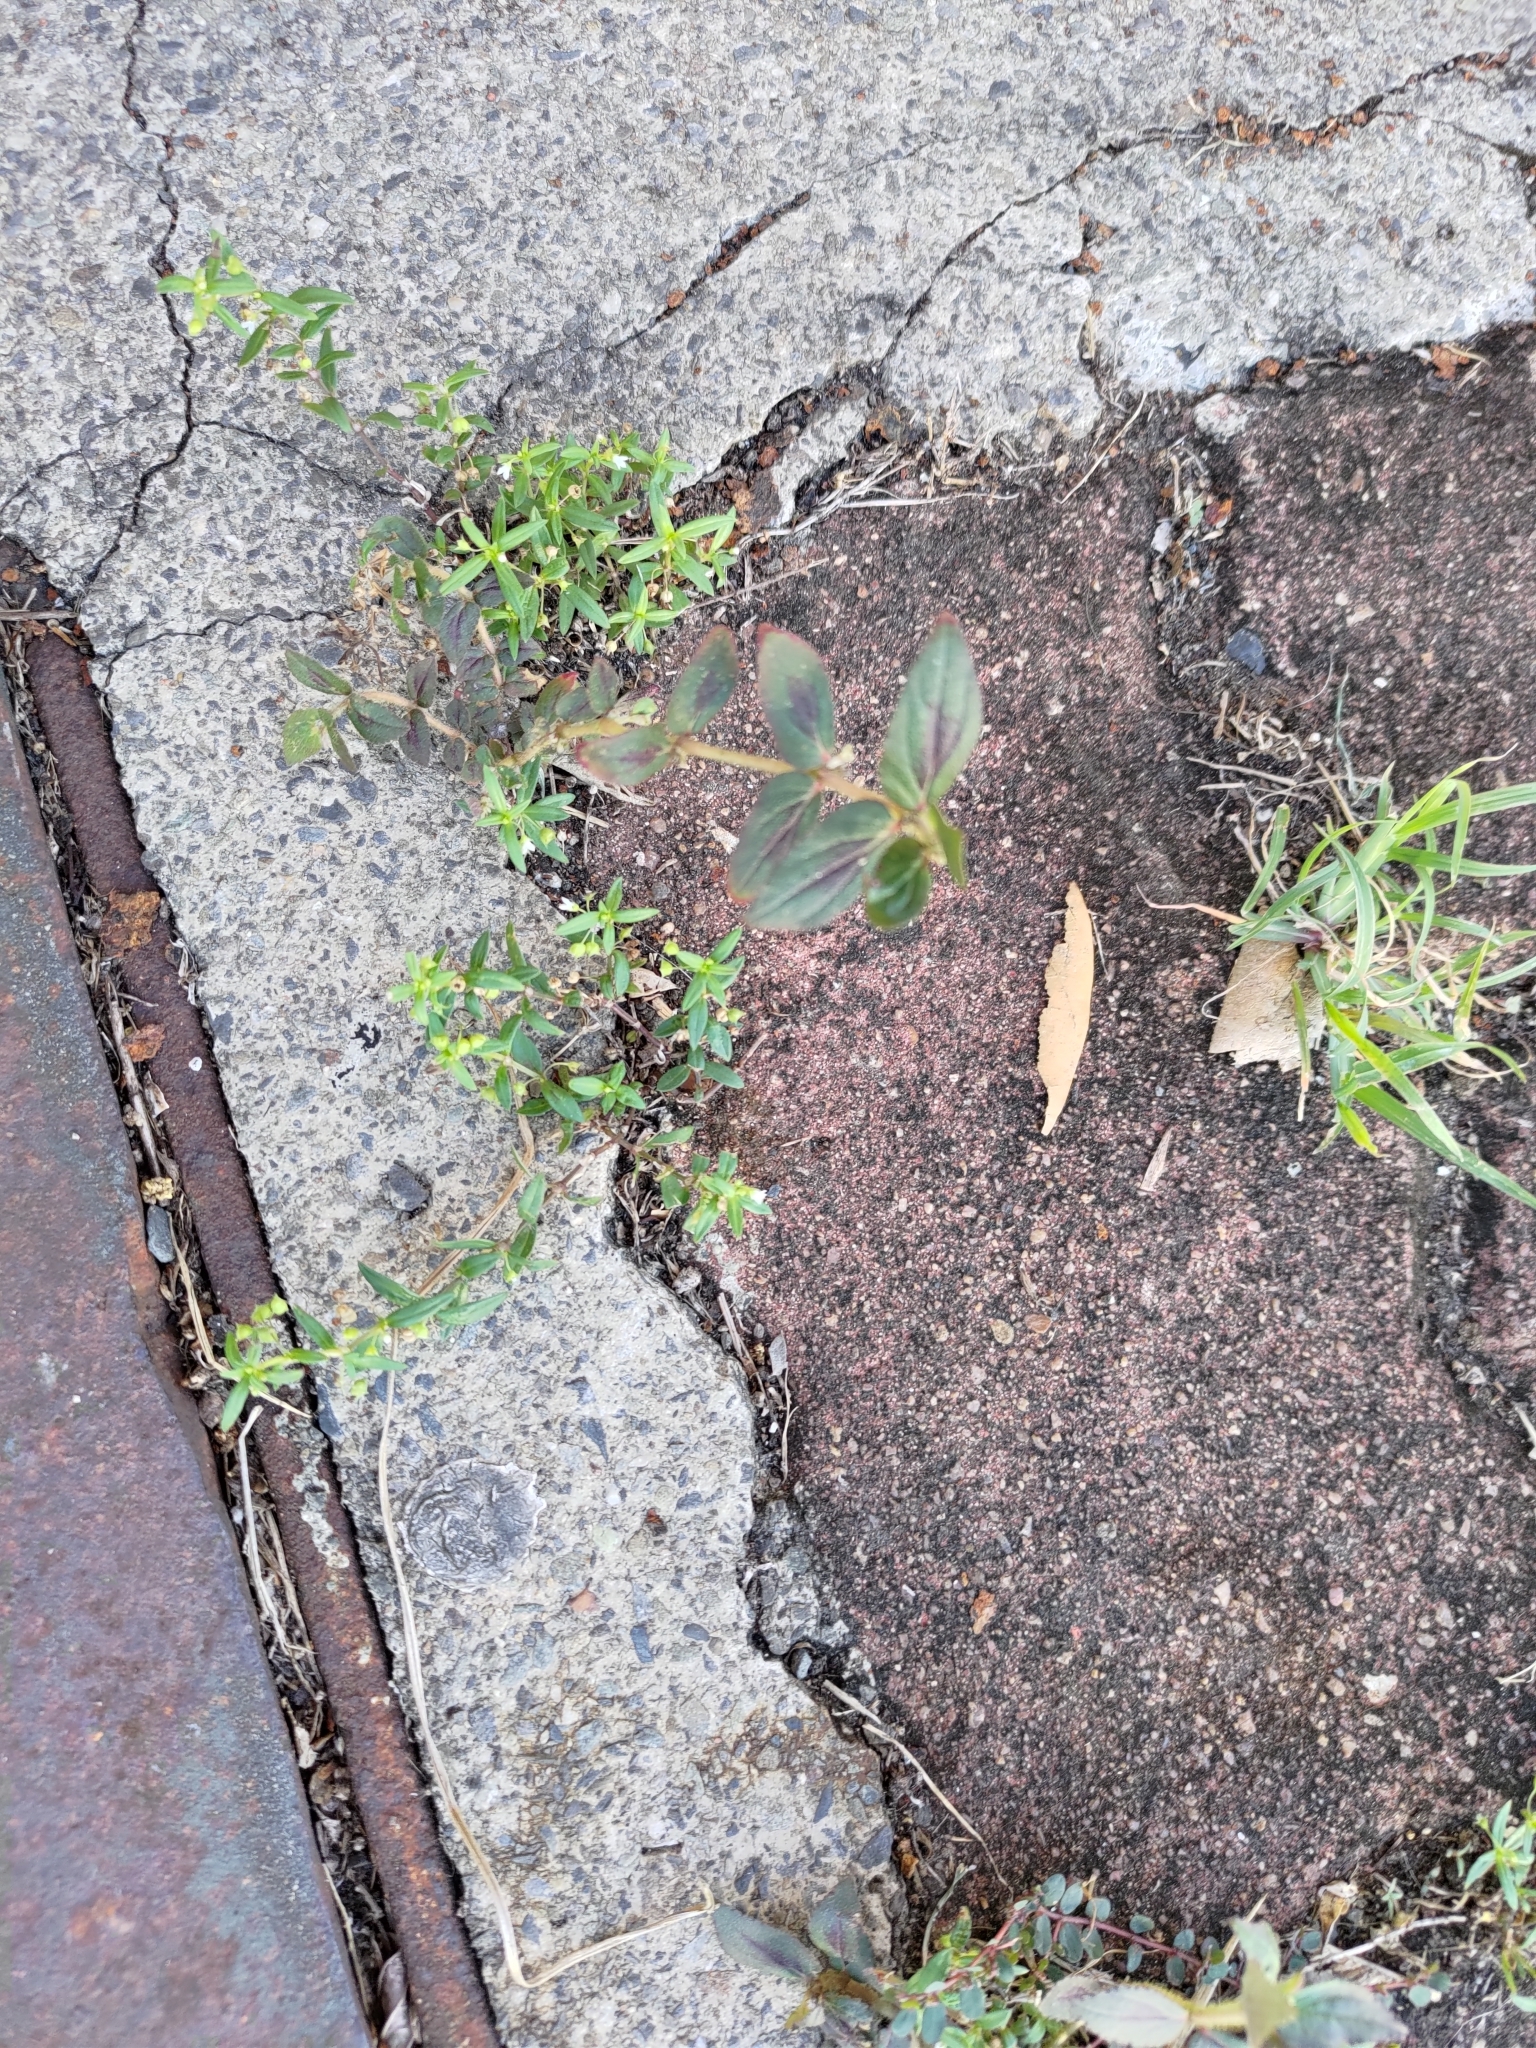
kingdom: Plantae
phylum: Tracheophyta
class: Magnoliopsida
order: Malpighiales
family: Euphorbiaceae
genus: Euphorbia
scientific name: Euphorbia hirta
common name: Pillpod sandmat
